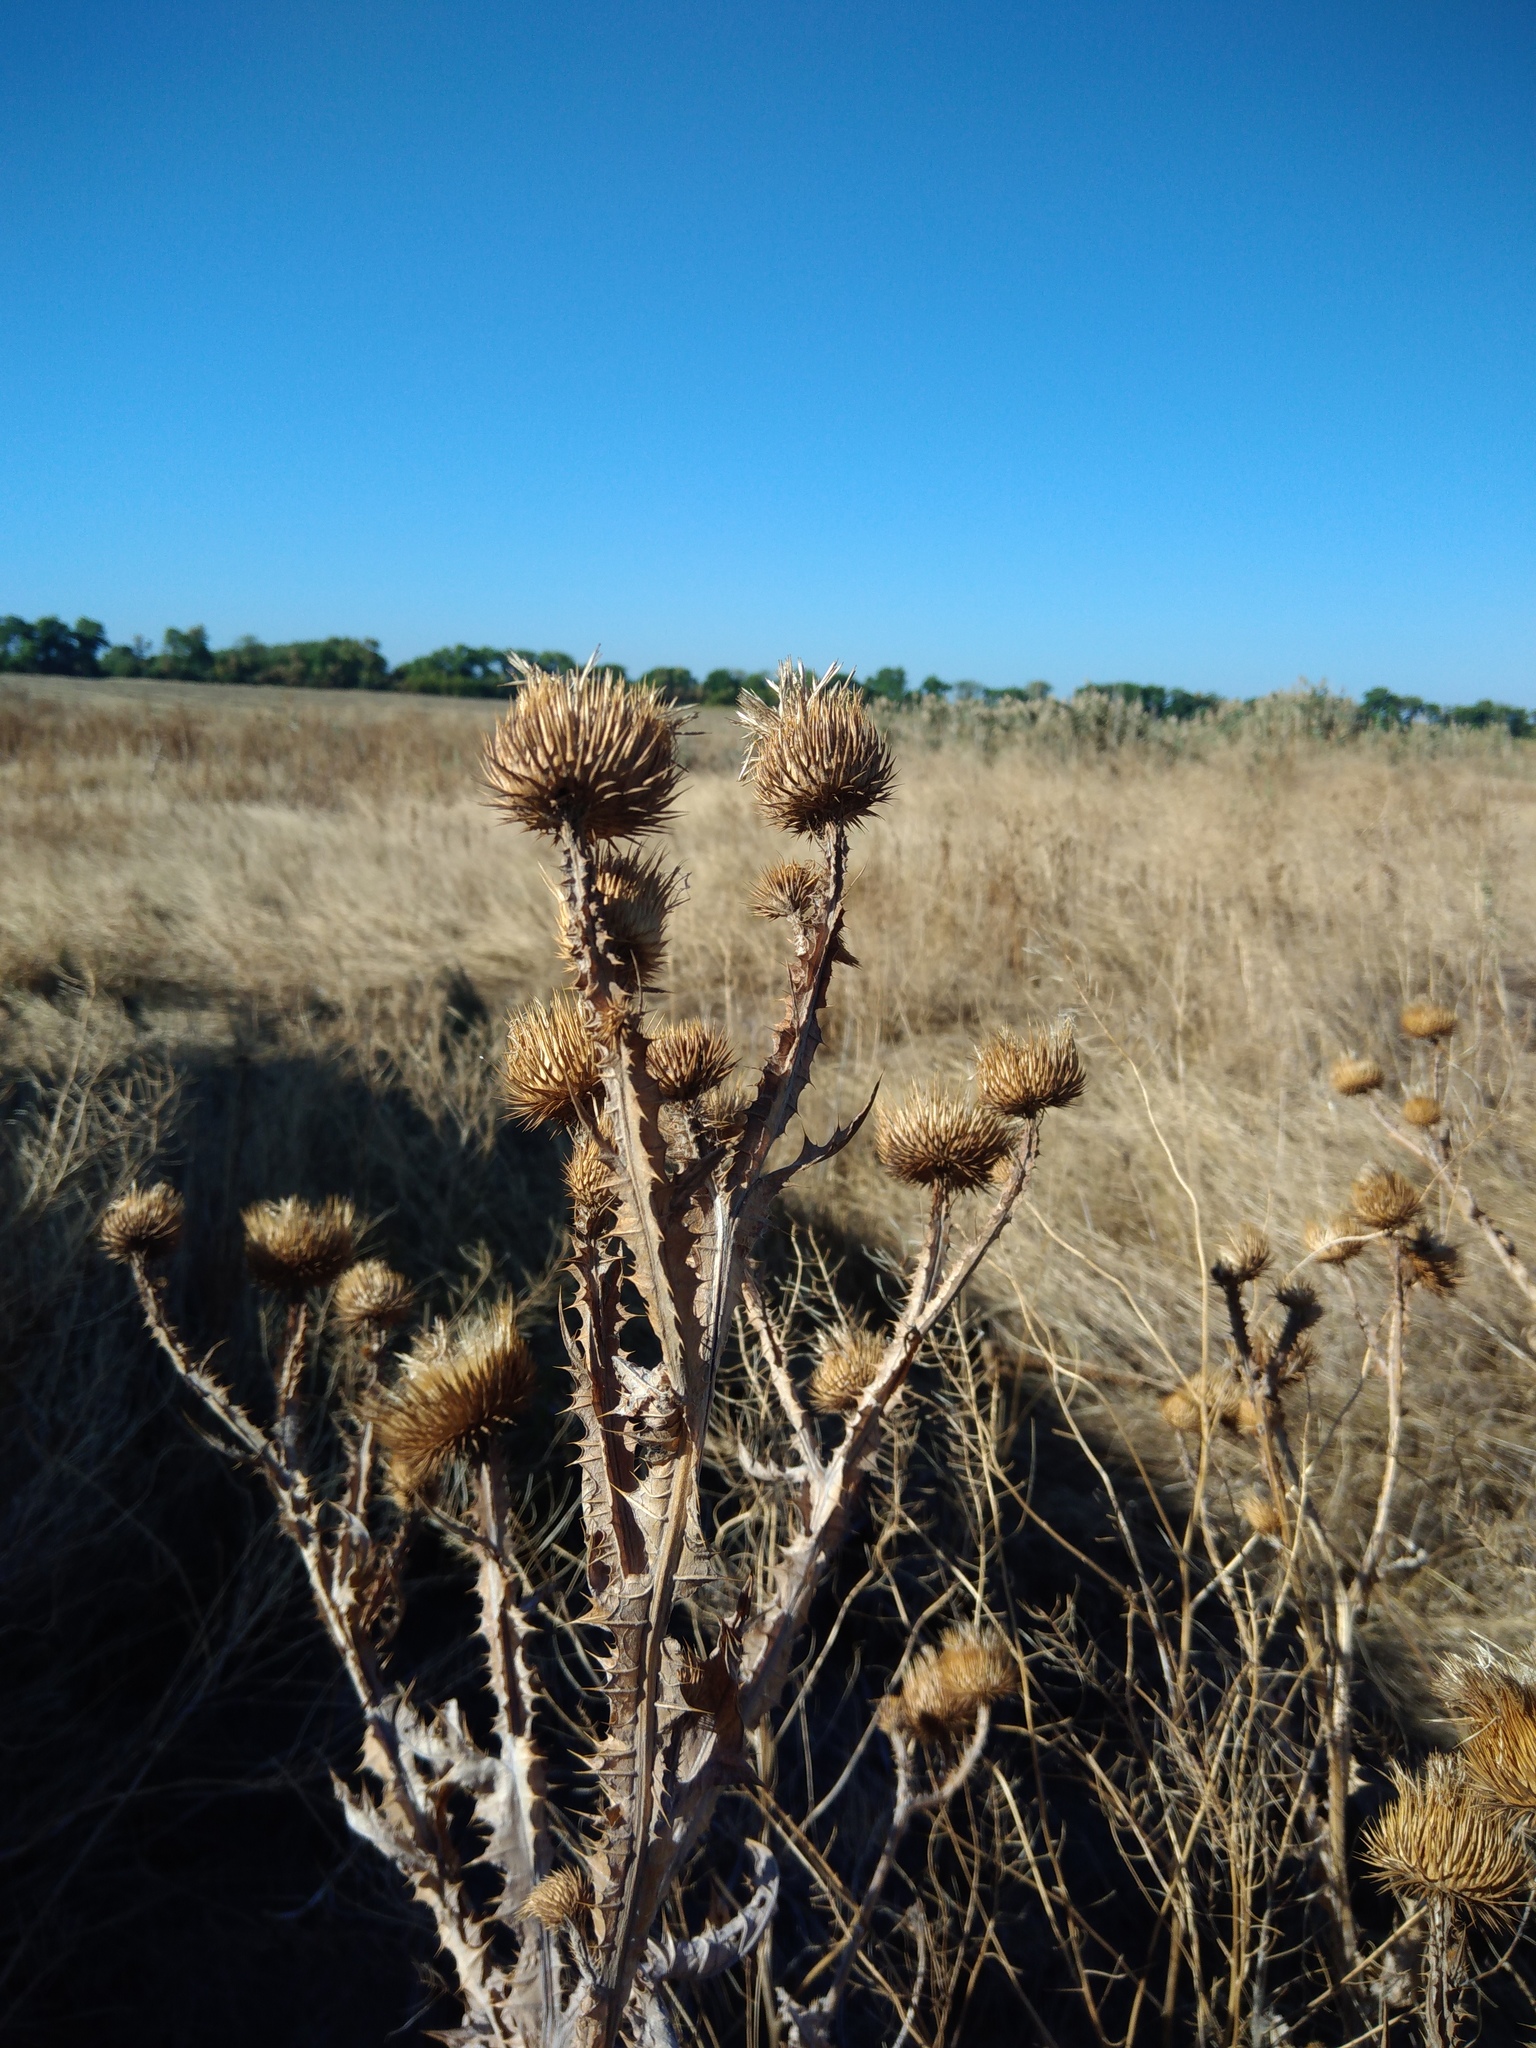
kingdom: Plantae
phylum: Tracheophyta
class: Magnoliopsida
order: Asterales
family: Asteraceae
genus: Onopordum
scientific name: Onopordum acanthium
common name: Scotch thistle
